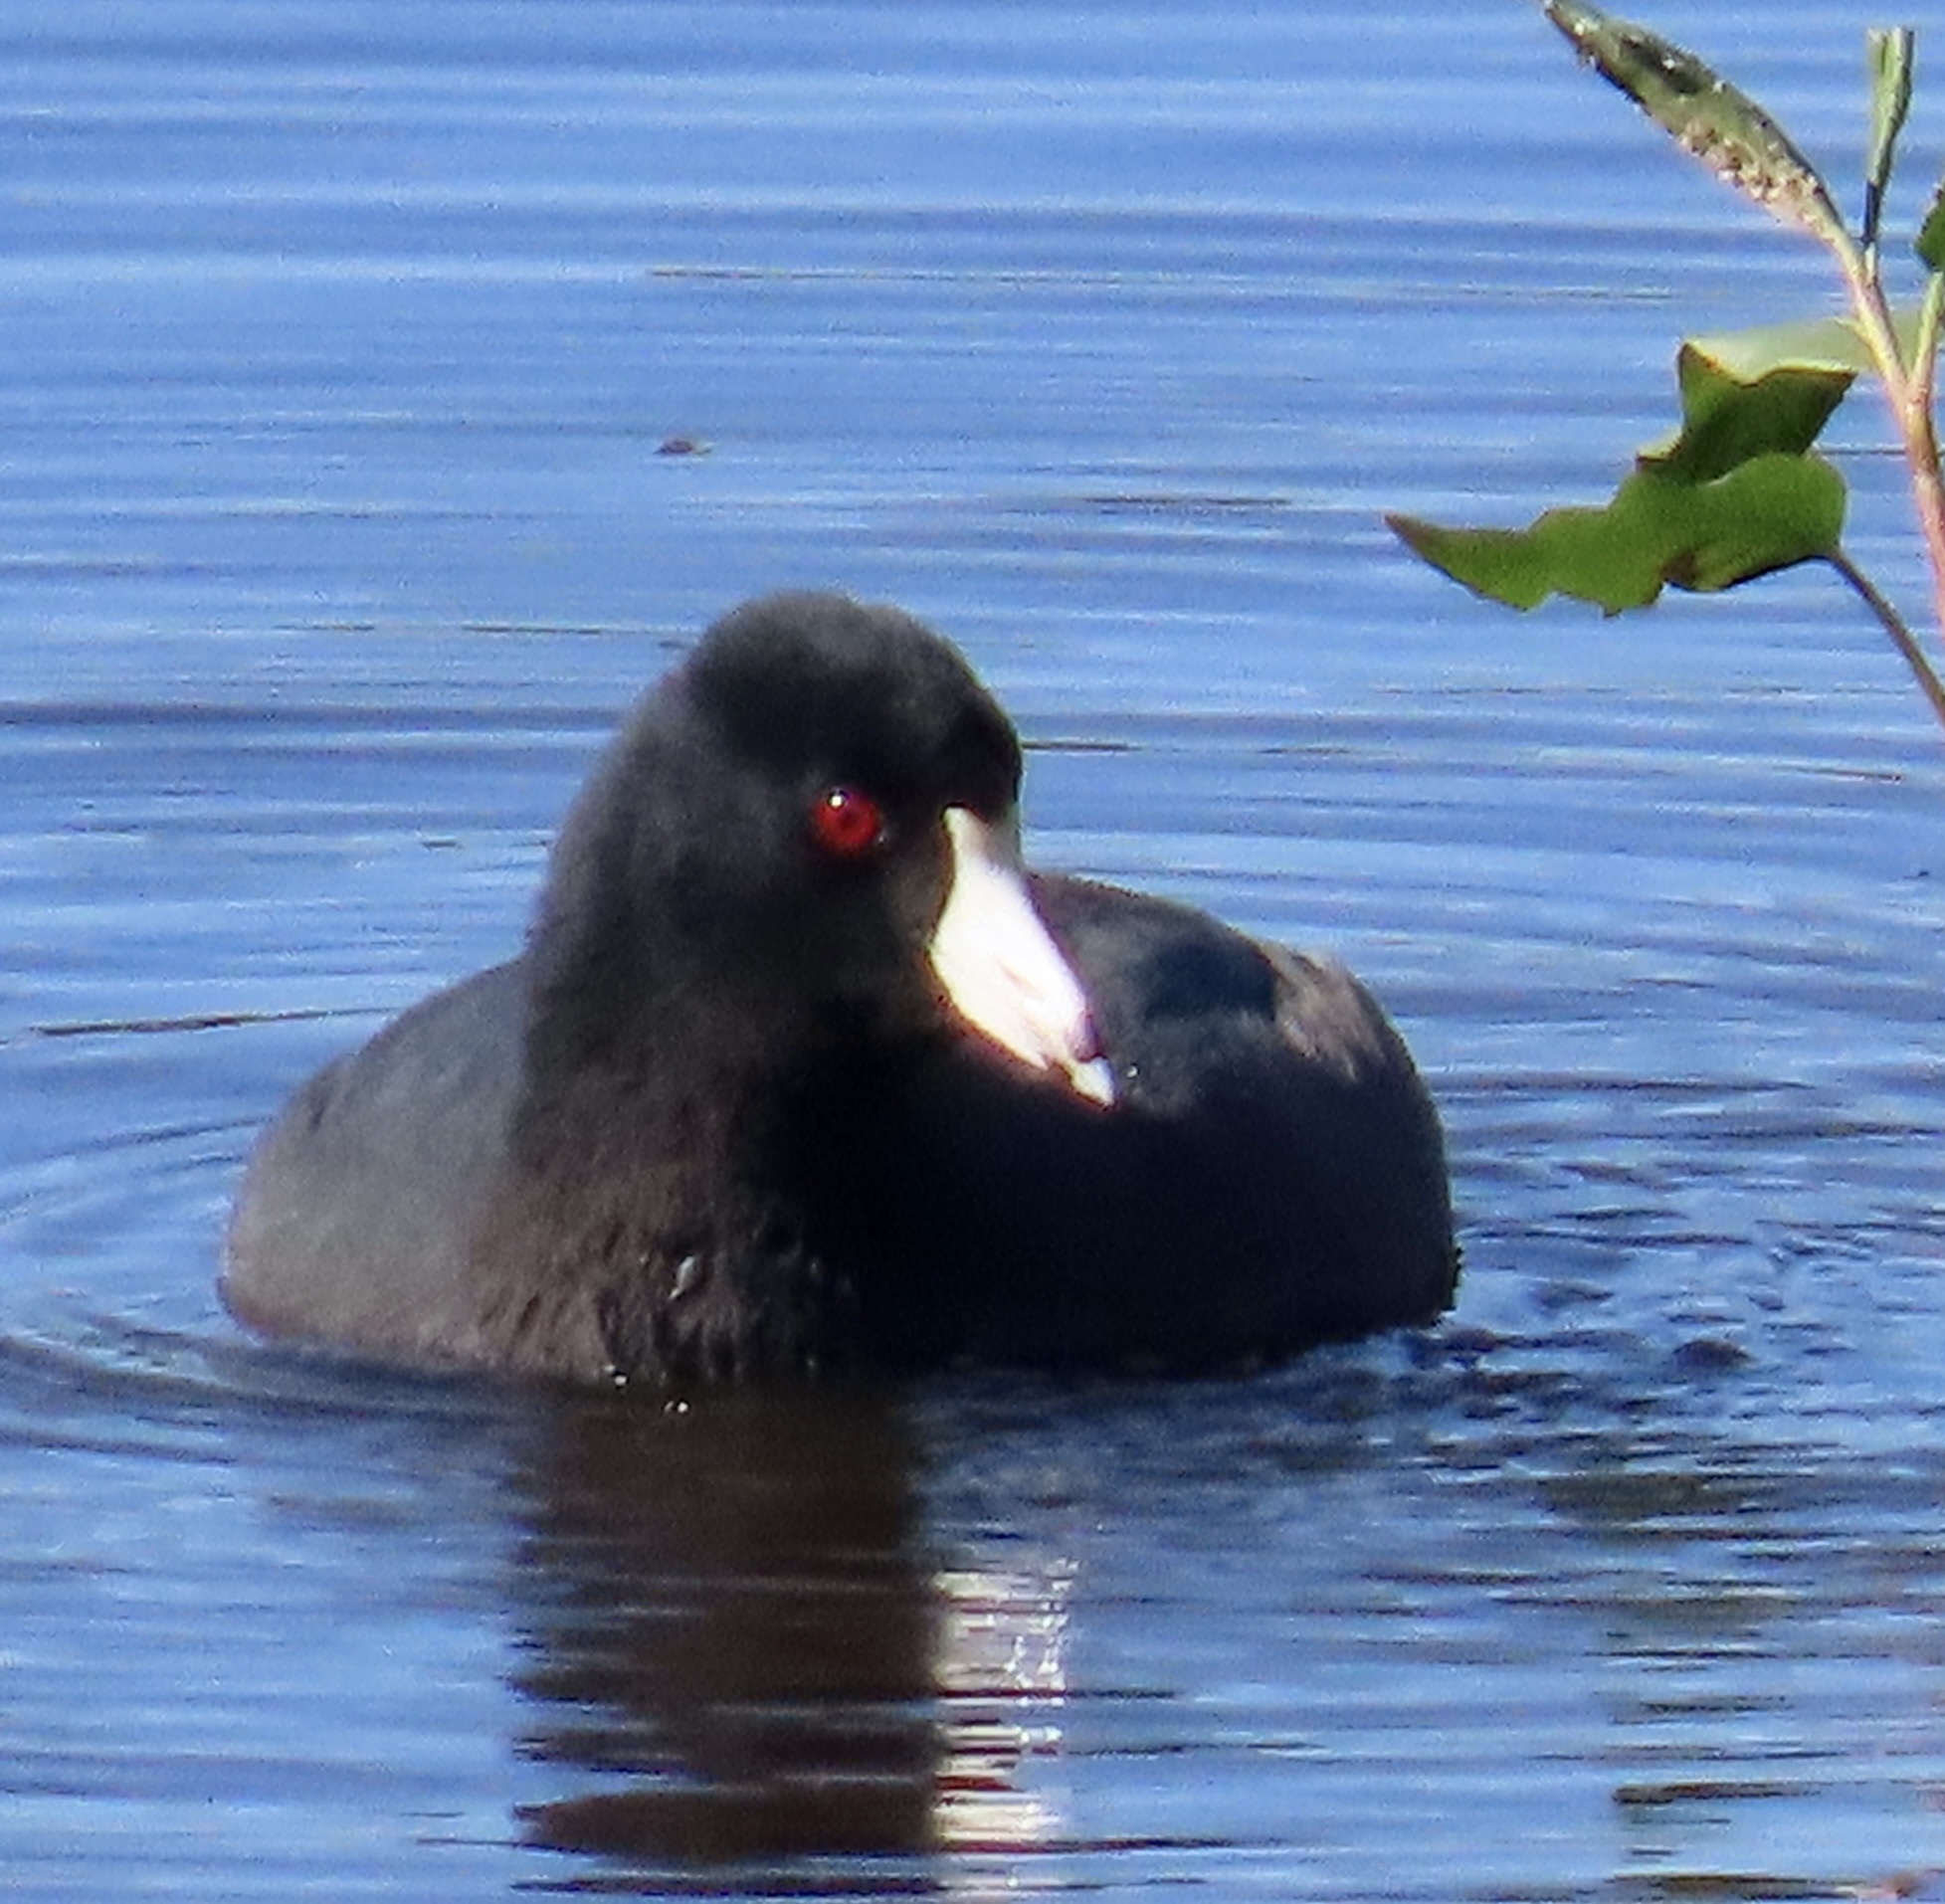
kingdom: Animalia
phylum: Chordata
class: Aves
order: Gruiformes
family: Rallidae
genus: Fulica
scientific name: Fulica americana
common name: American coot
